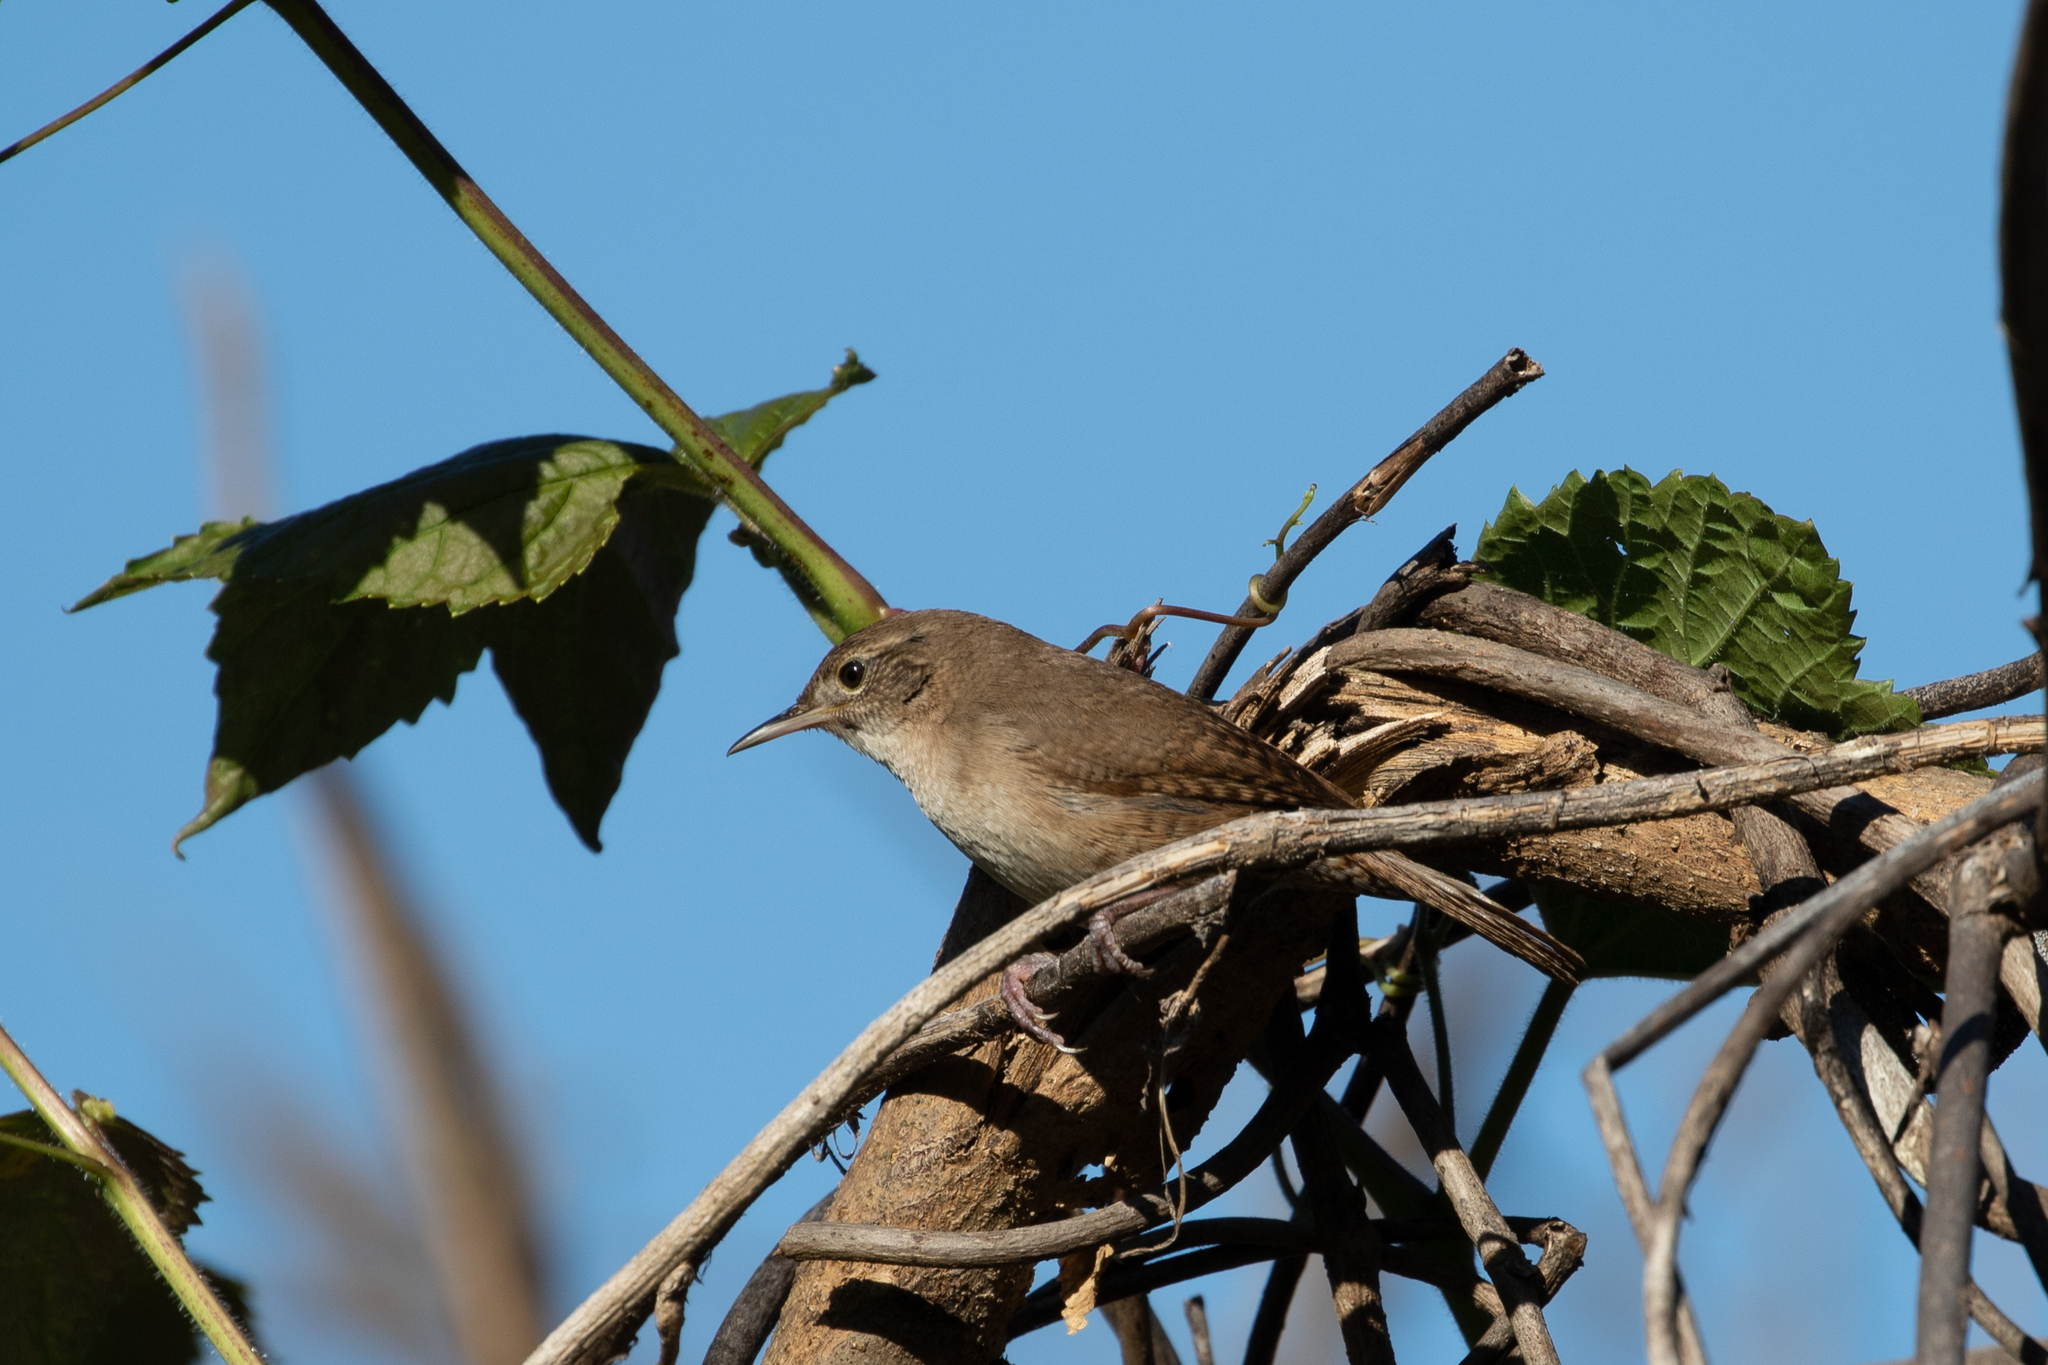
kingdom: Animalia
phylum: Chordata
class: Aves
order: Passeriformes
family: Troglodytidae
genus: Troglodytes
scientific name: Troglodytes aedon
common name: House wren
